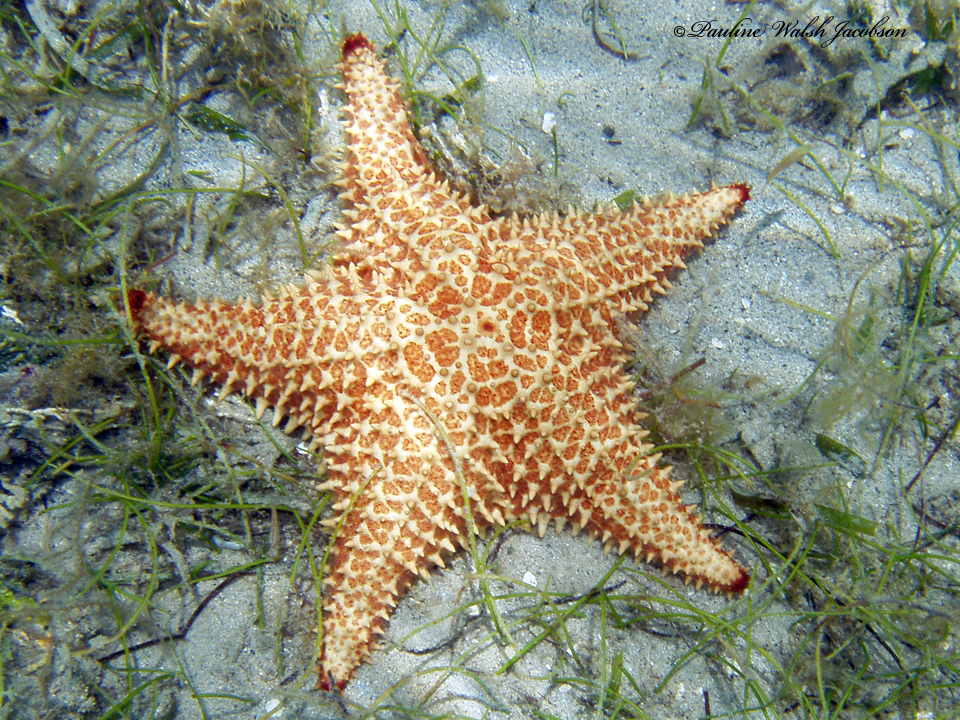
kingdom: Animalia
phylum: Echinodermata
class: Asteroidea
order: Valvatida
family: Oreasteridae
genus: Oreaster
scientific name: Oreaster reticulatus
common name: Cushion sea star
